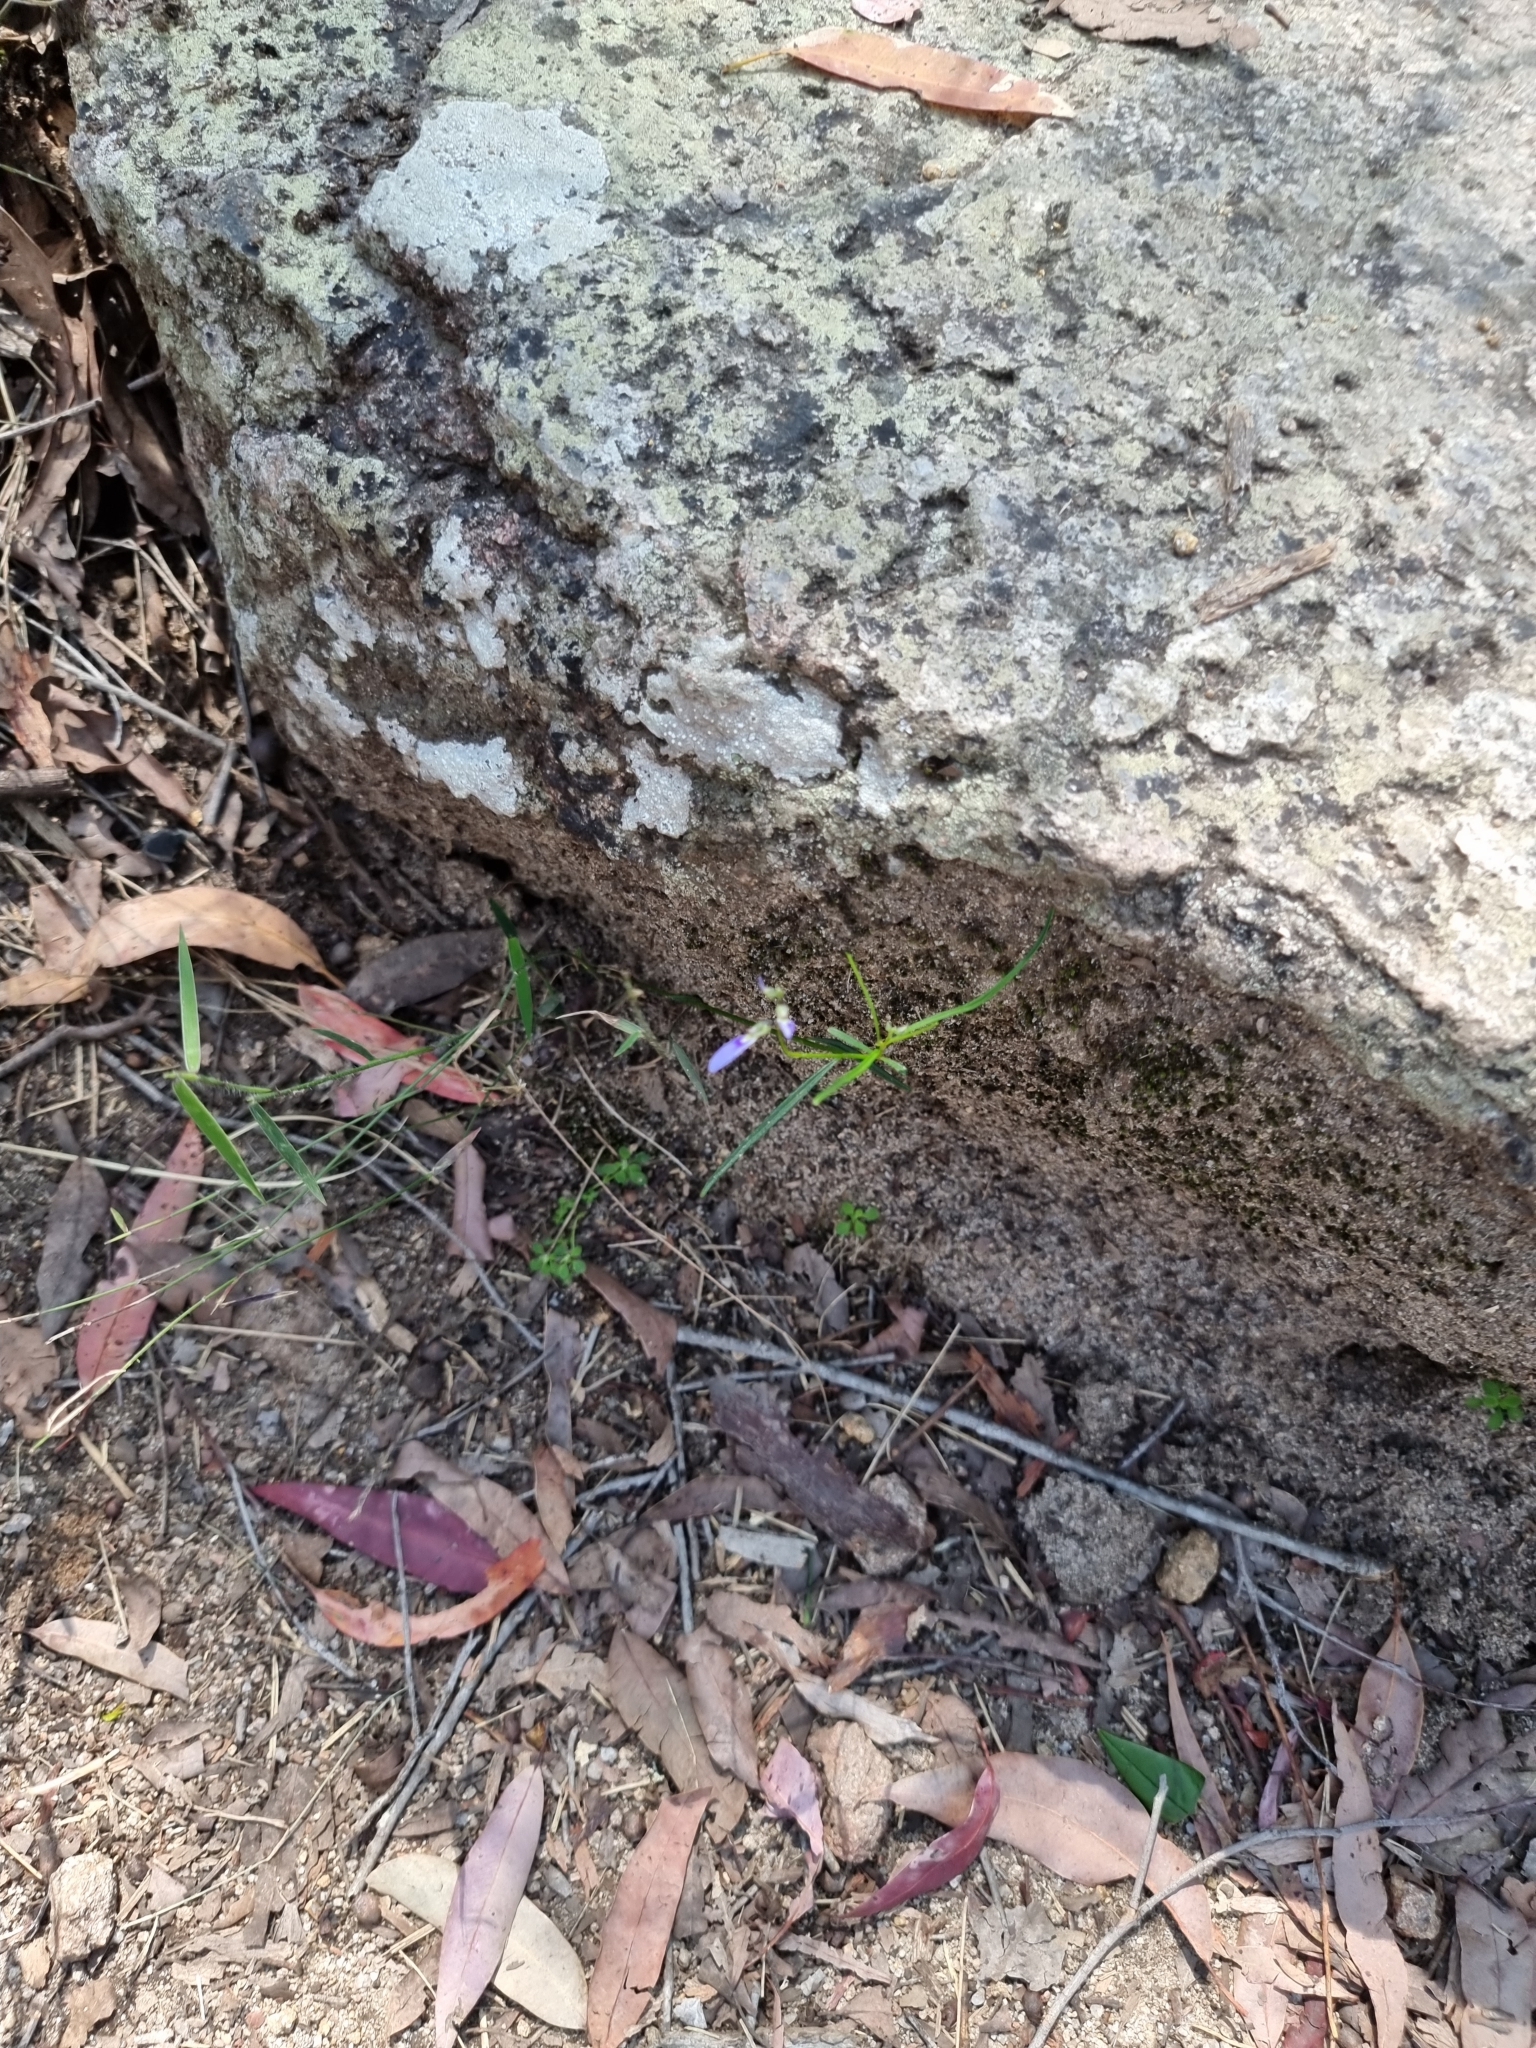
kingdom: Plantae
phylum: Tracheophyta
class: Magnoliopsida
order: Malpighiales
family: Violaceae
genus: Pigea
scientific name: Pigea monopetala
